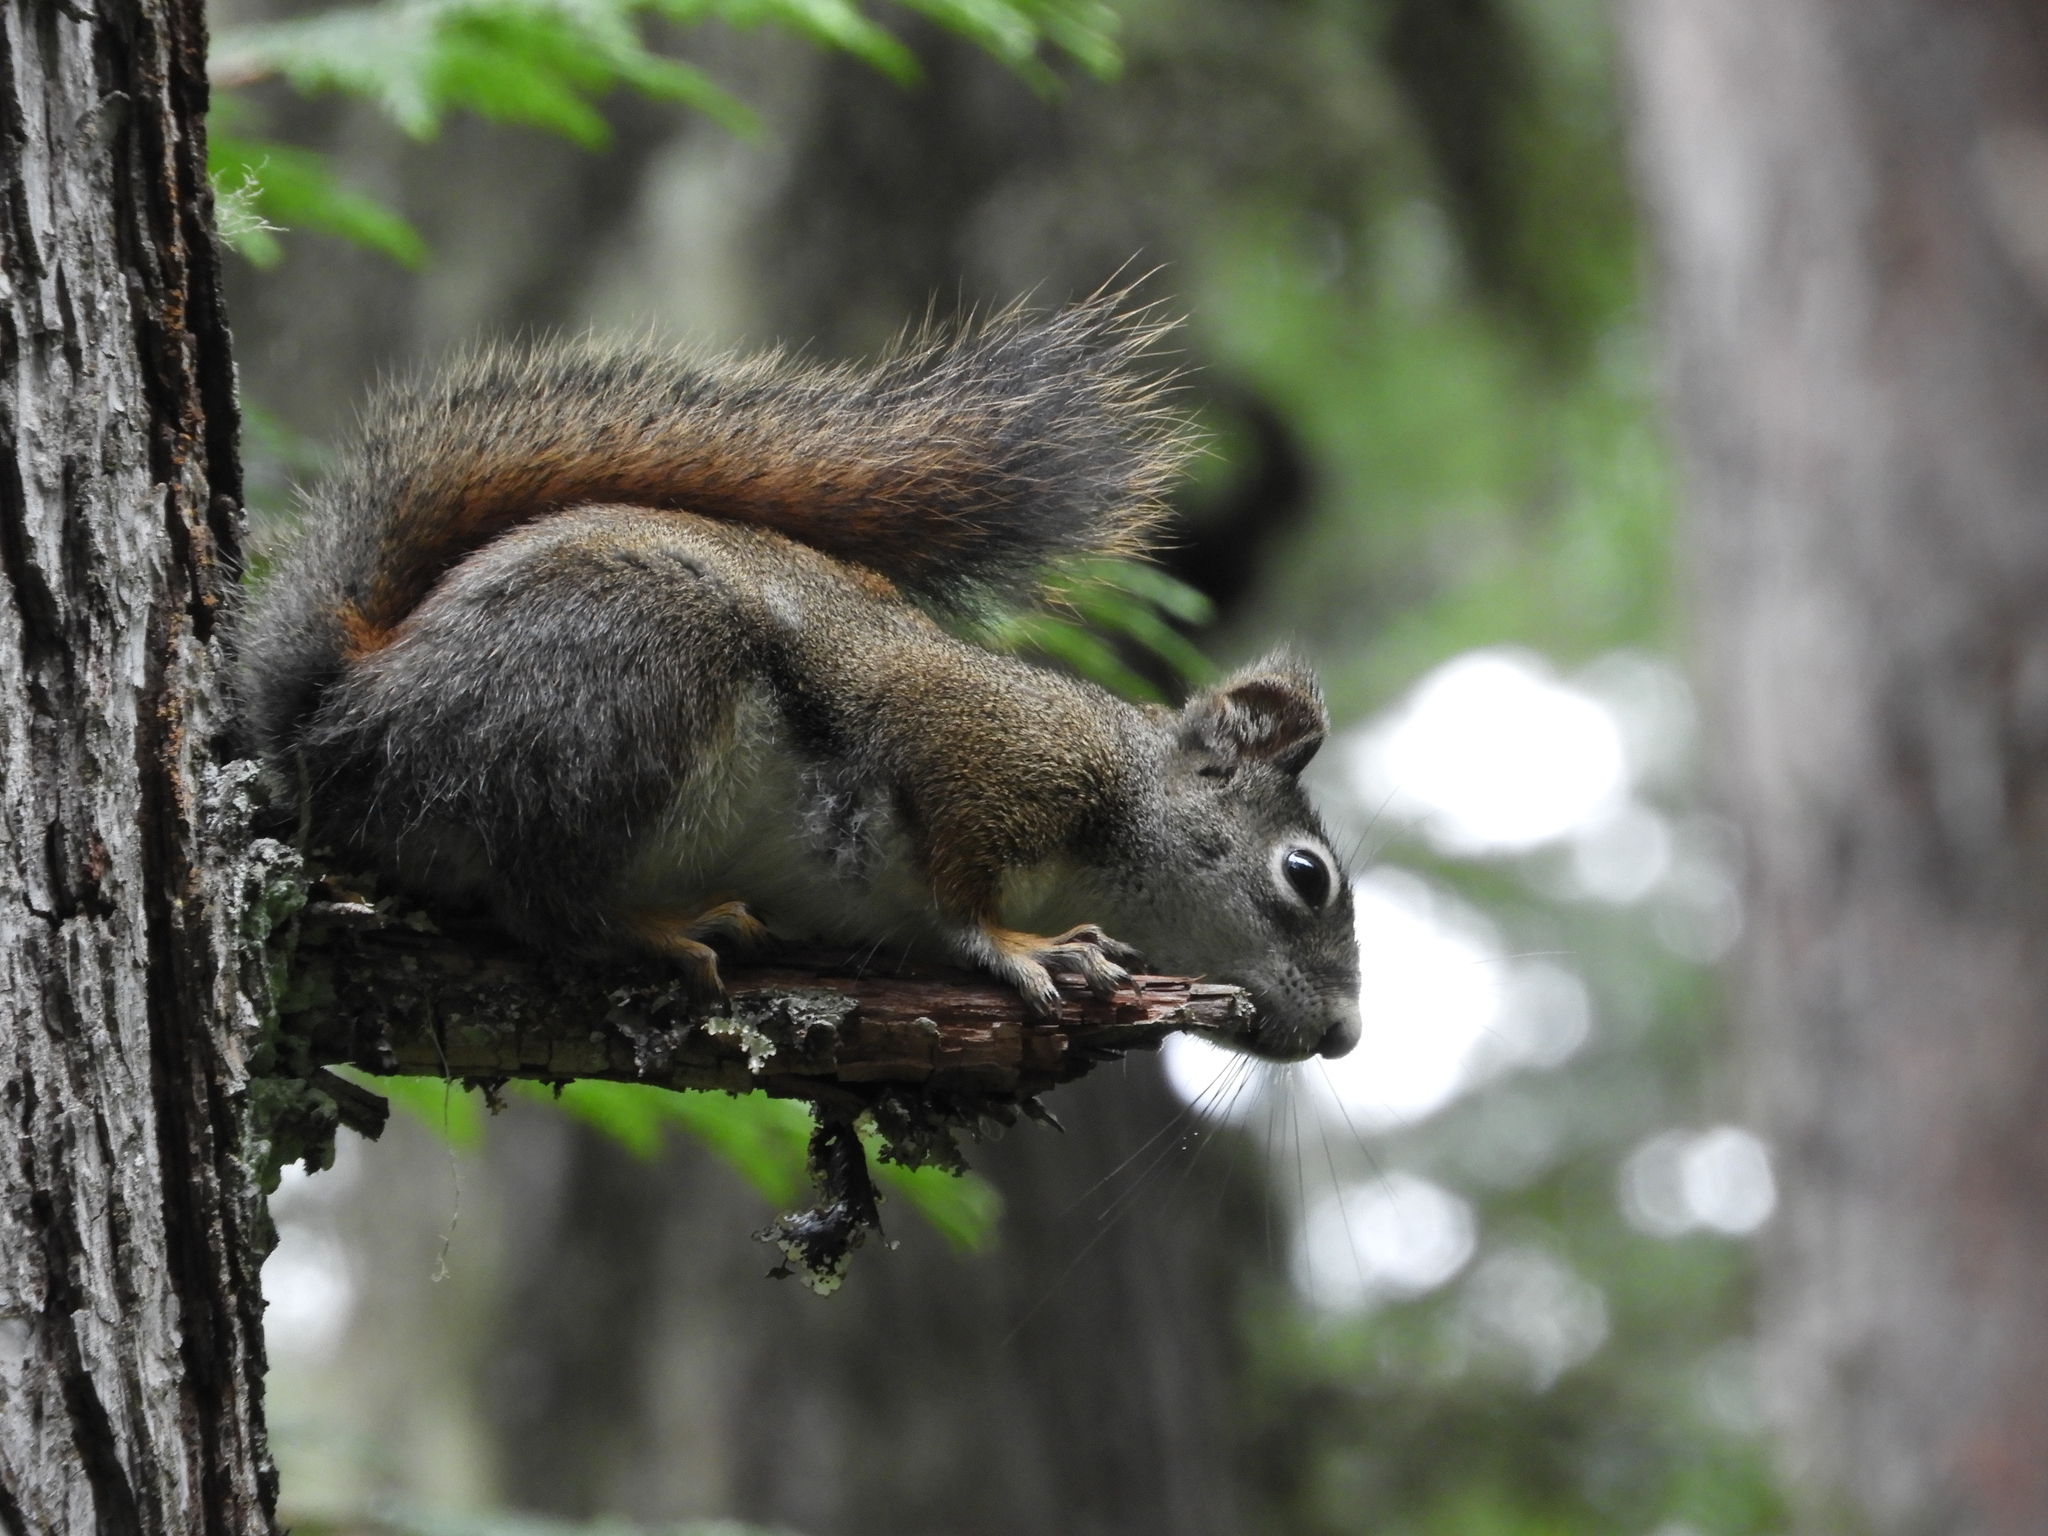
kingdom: Animalia
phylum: Chordata
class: Mammalia
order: Rodentia
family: Sciuridae
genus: Tamiasciurus
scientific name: Tamiasciurus hudsonicus
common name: Red squirrel
